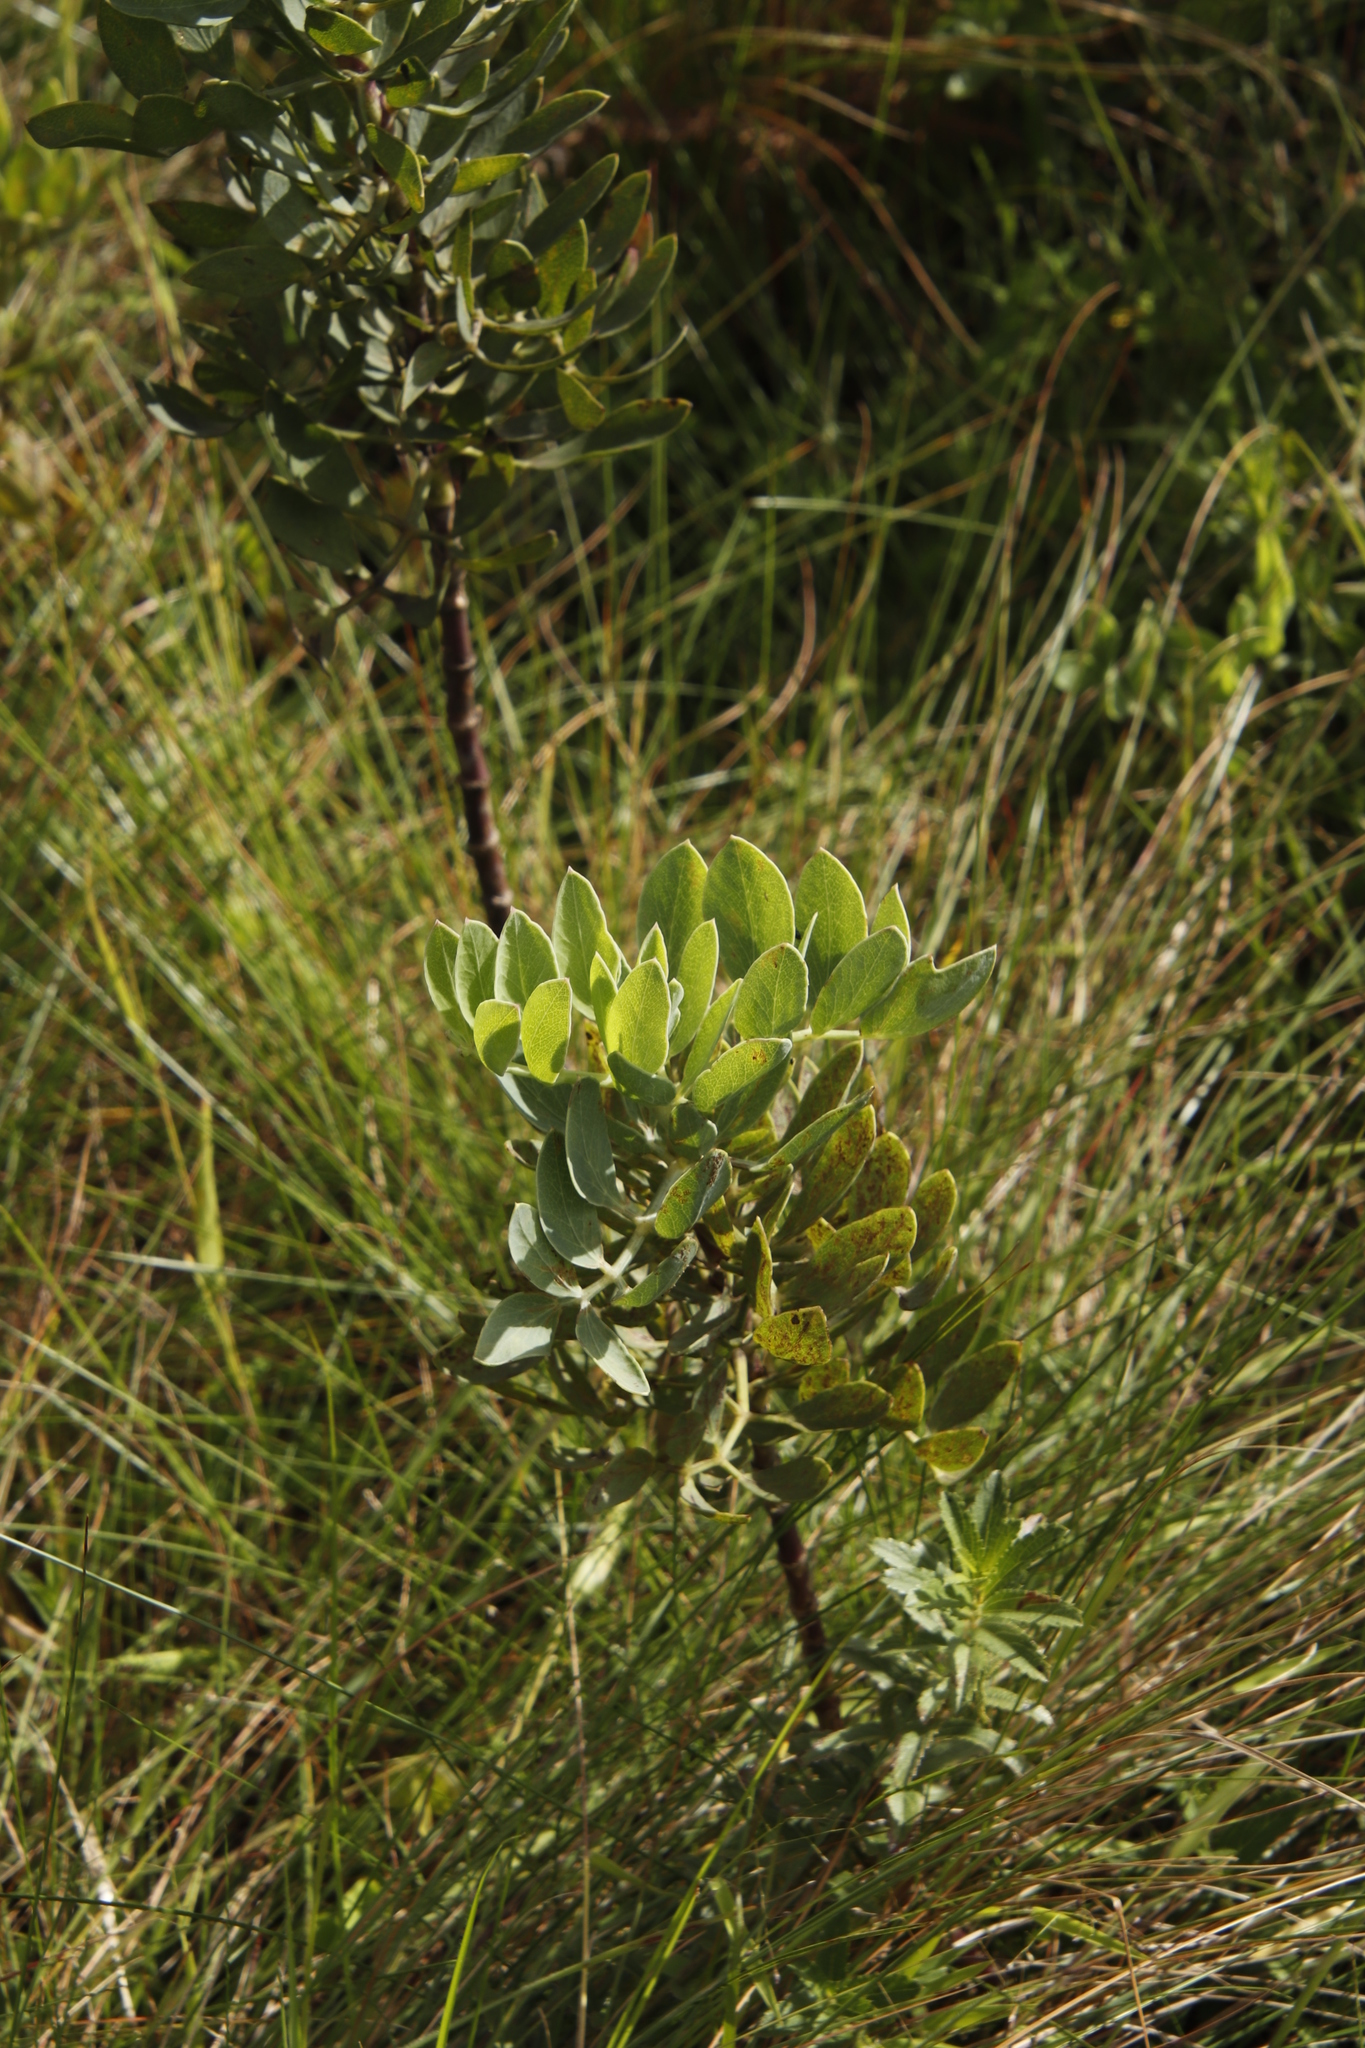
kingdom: Plantae
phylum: Tracheophyta
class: Magnoliopsida
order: Apiales
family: Apiaceae
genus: Diplolophium
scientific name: Diplolophium swynnertonii
